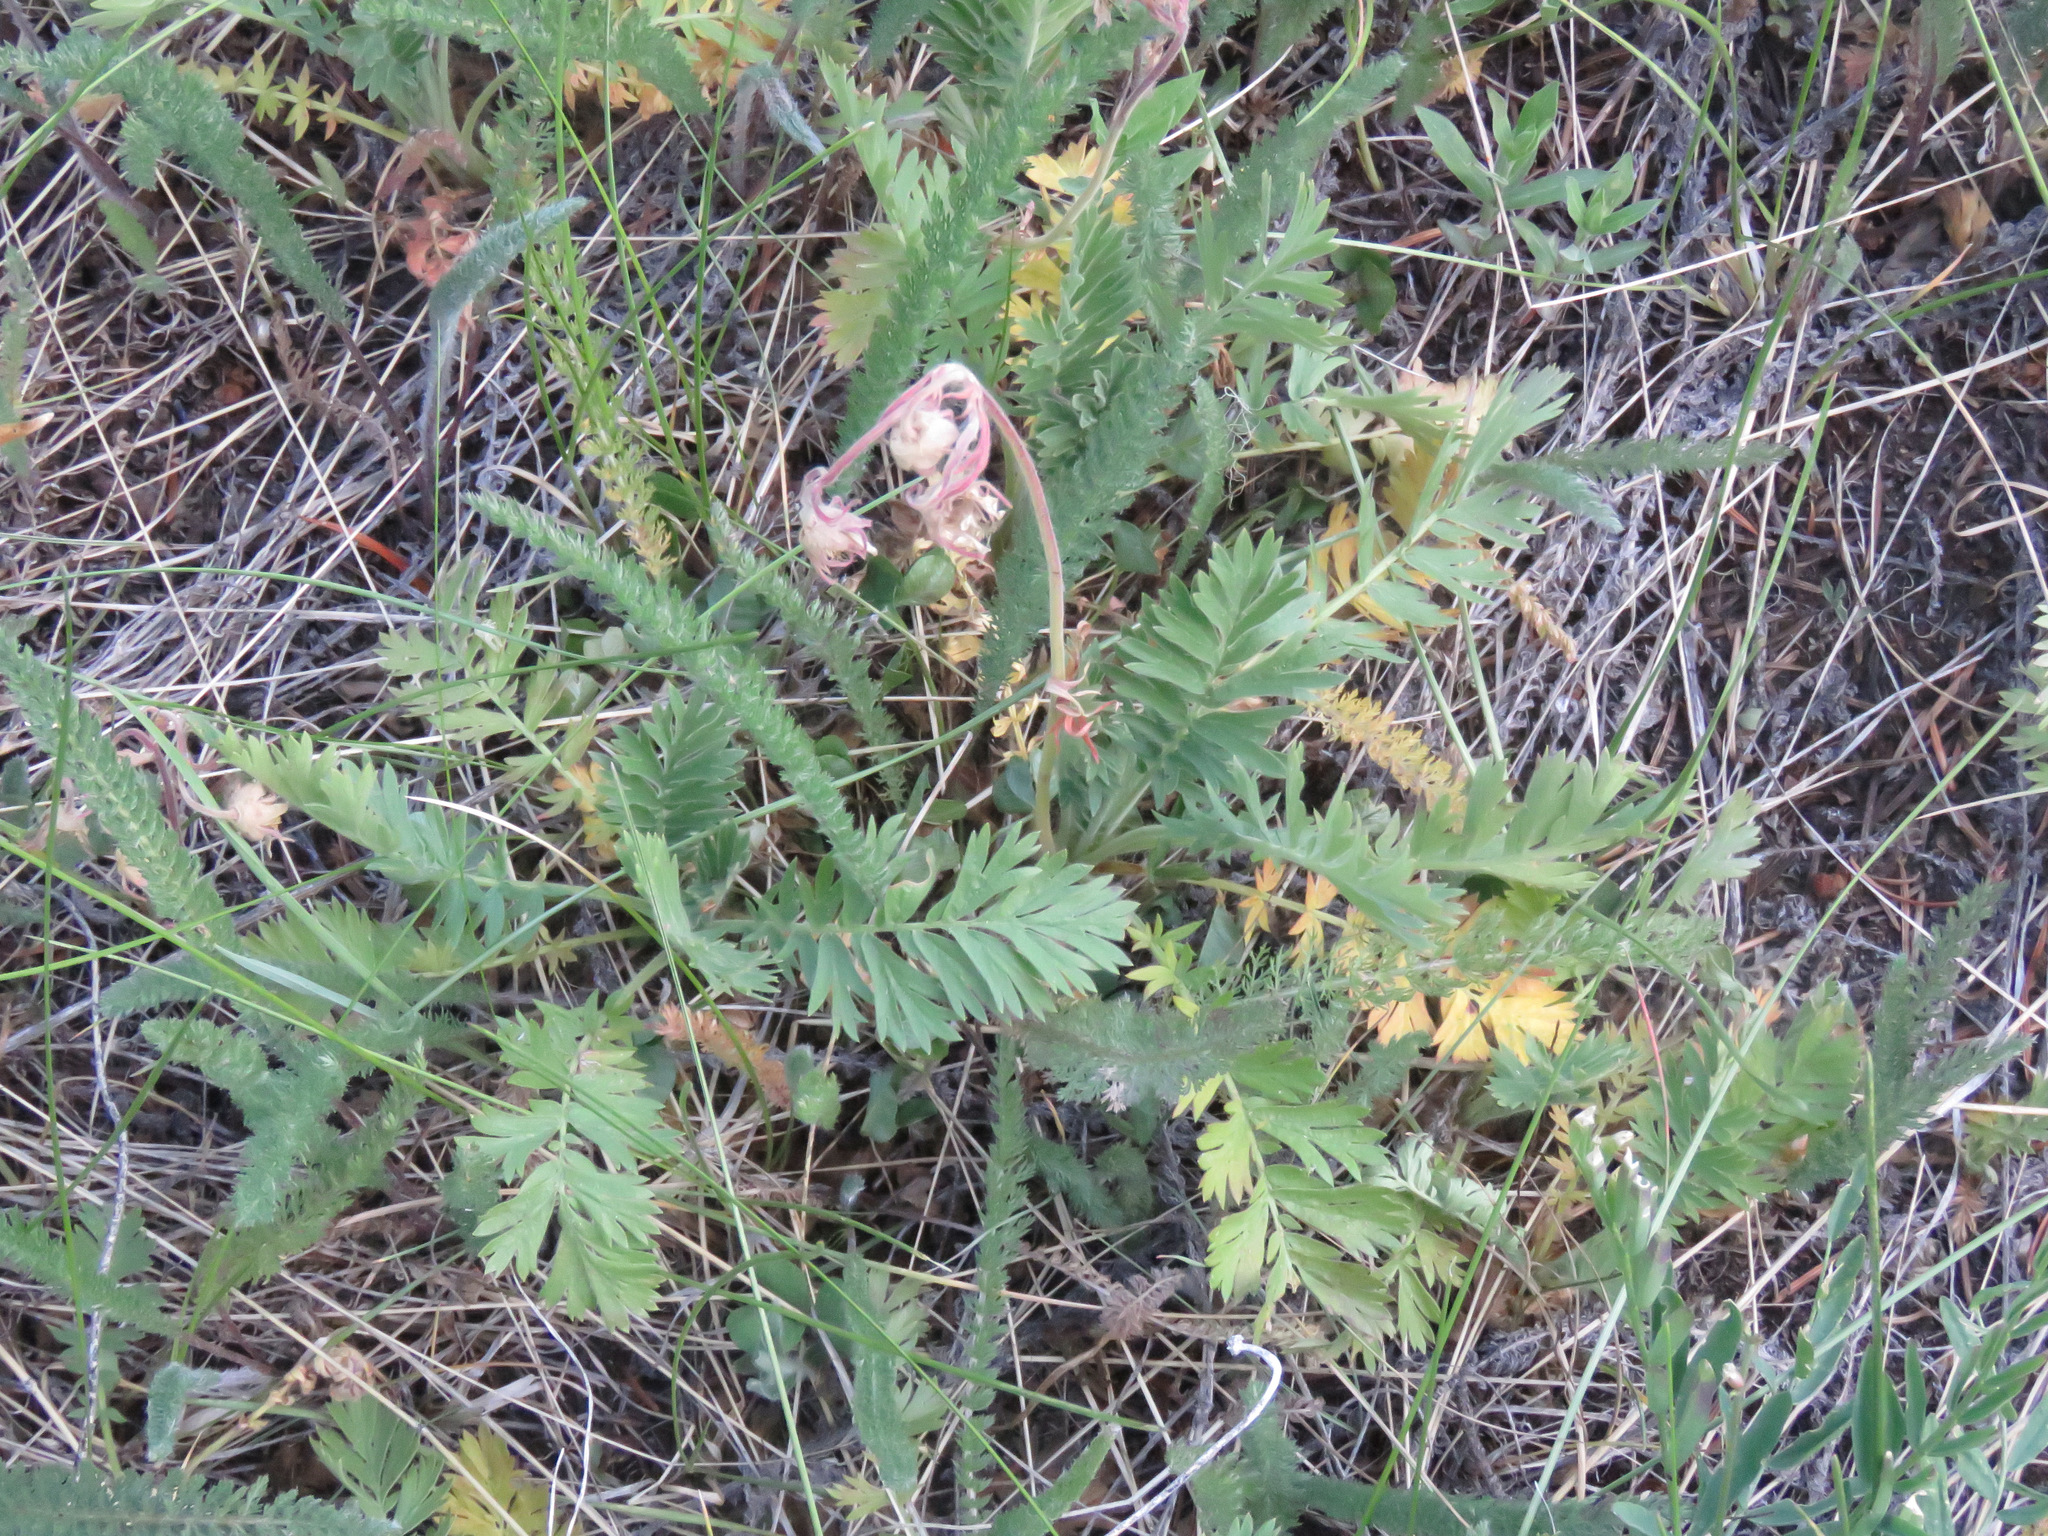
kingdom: Plantae
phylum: Tracheophyta
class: Magnoliopsida
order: Rosales
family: Rosaceae
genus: Geum
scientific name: Geum triflorum
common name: Old man's whiskers
